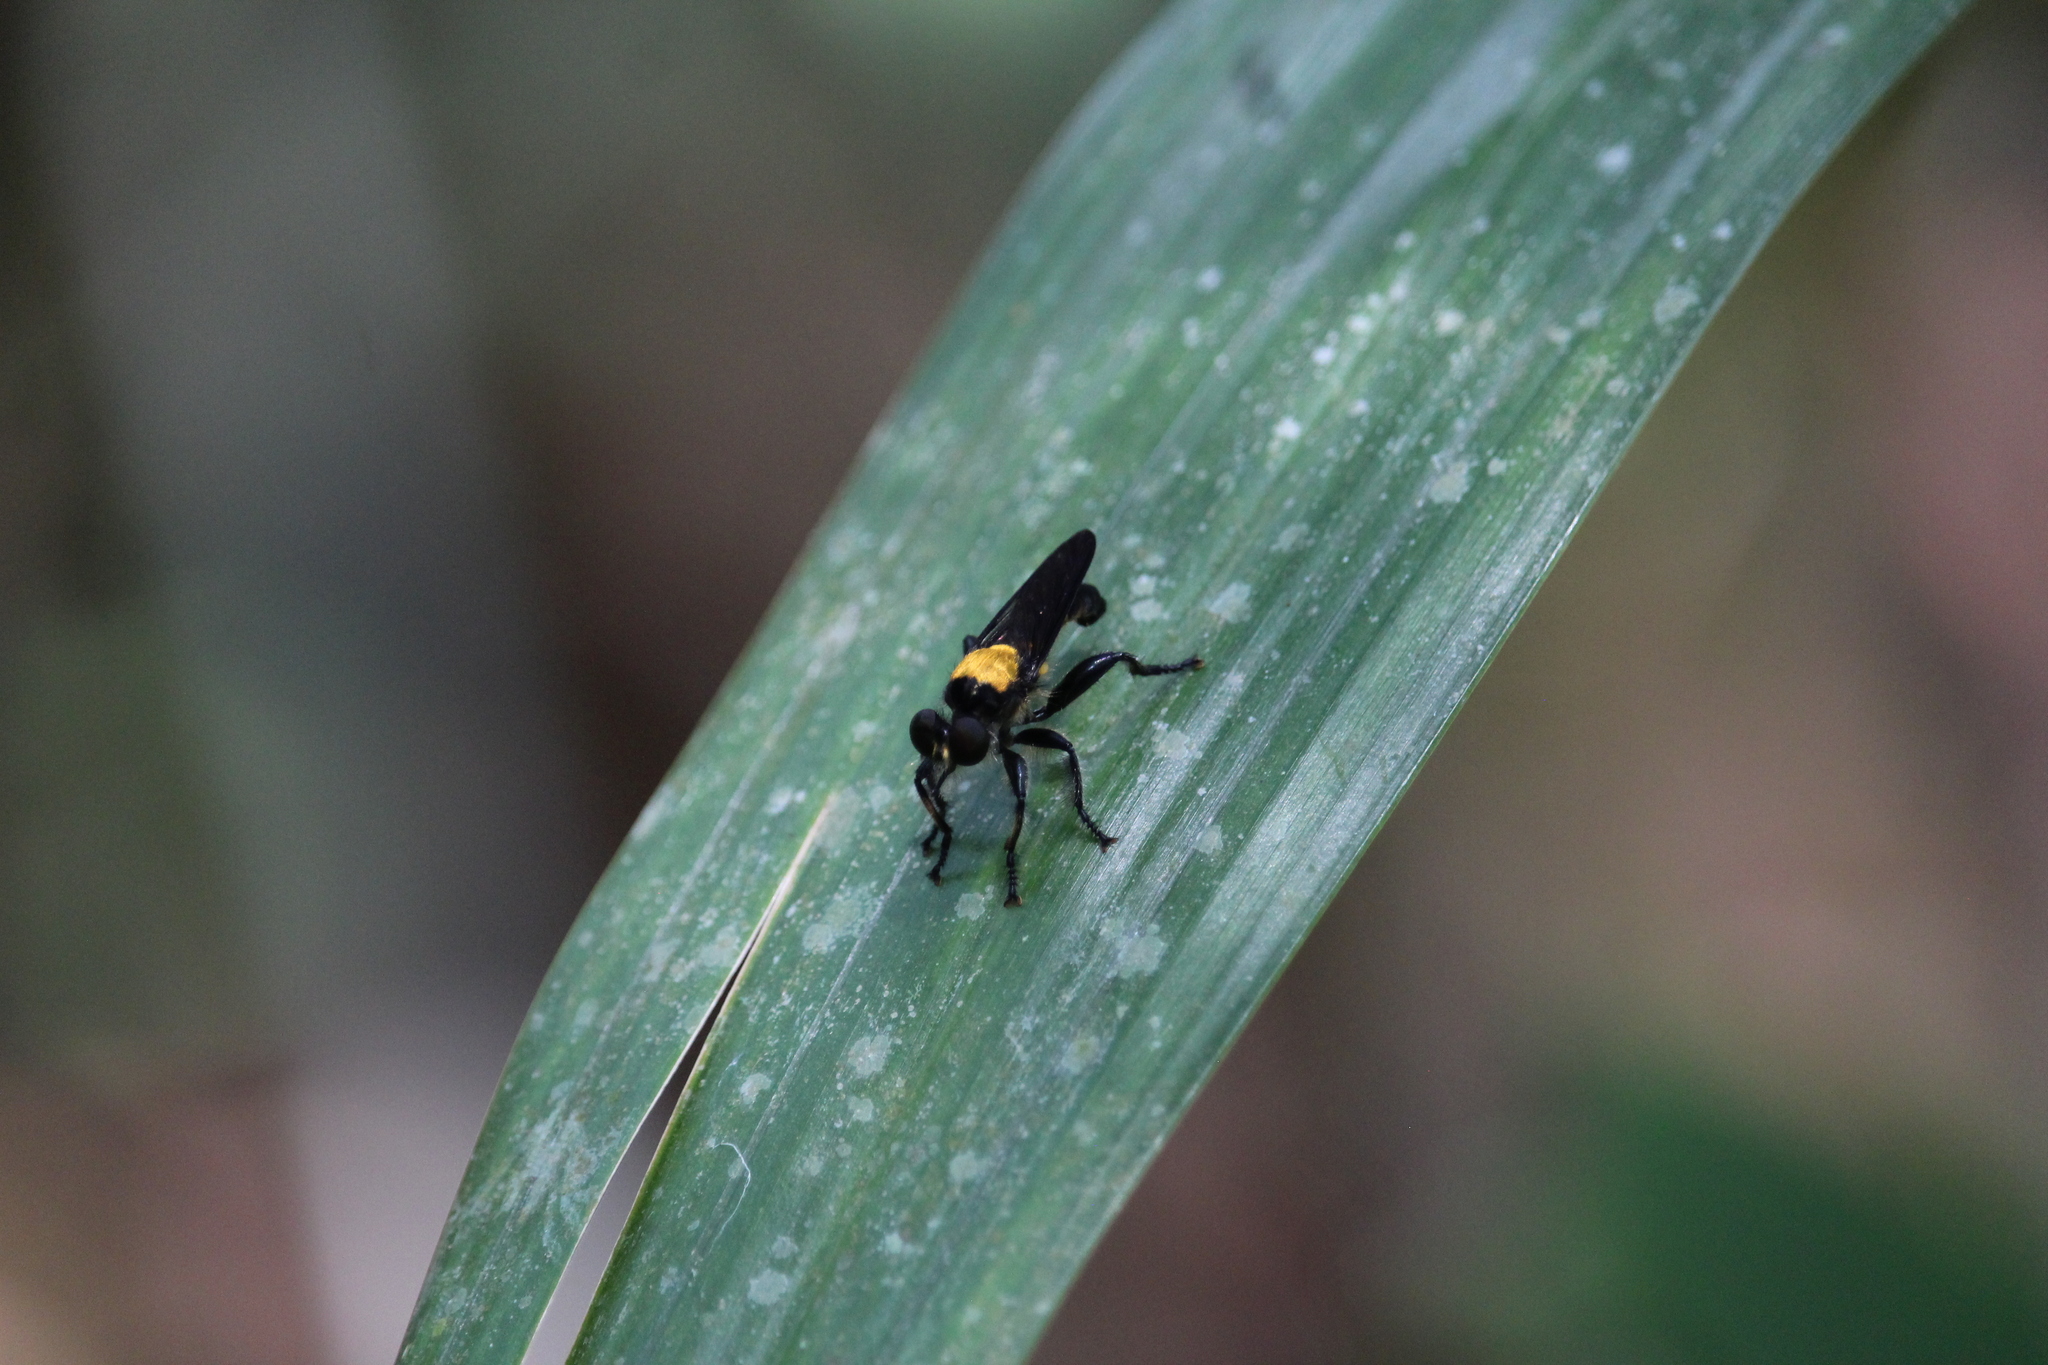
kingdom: Animalia
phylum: Arthropoda
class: Insecta
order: Diptera
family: Asilidae
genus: Lampria
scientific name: Lampria aurifex
